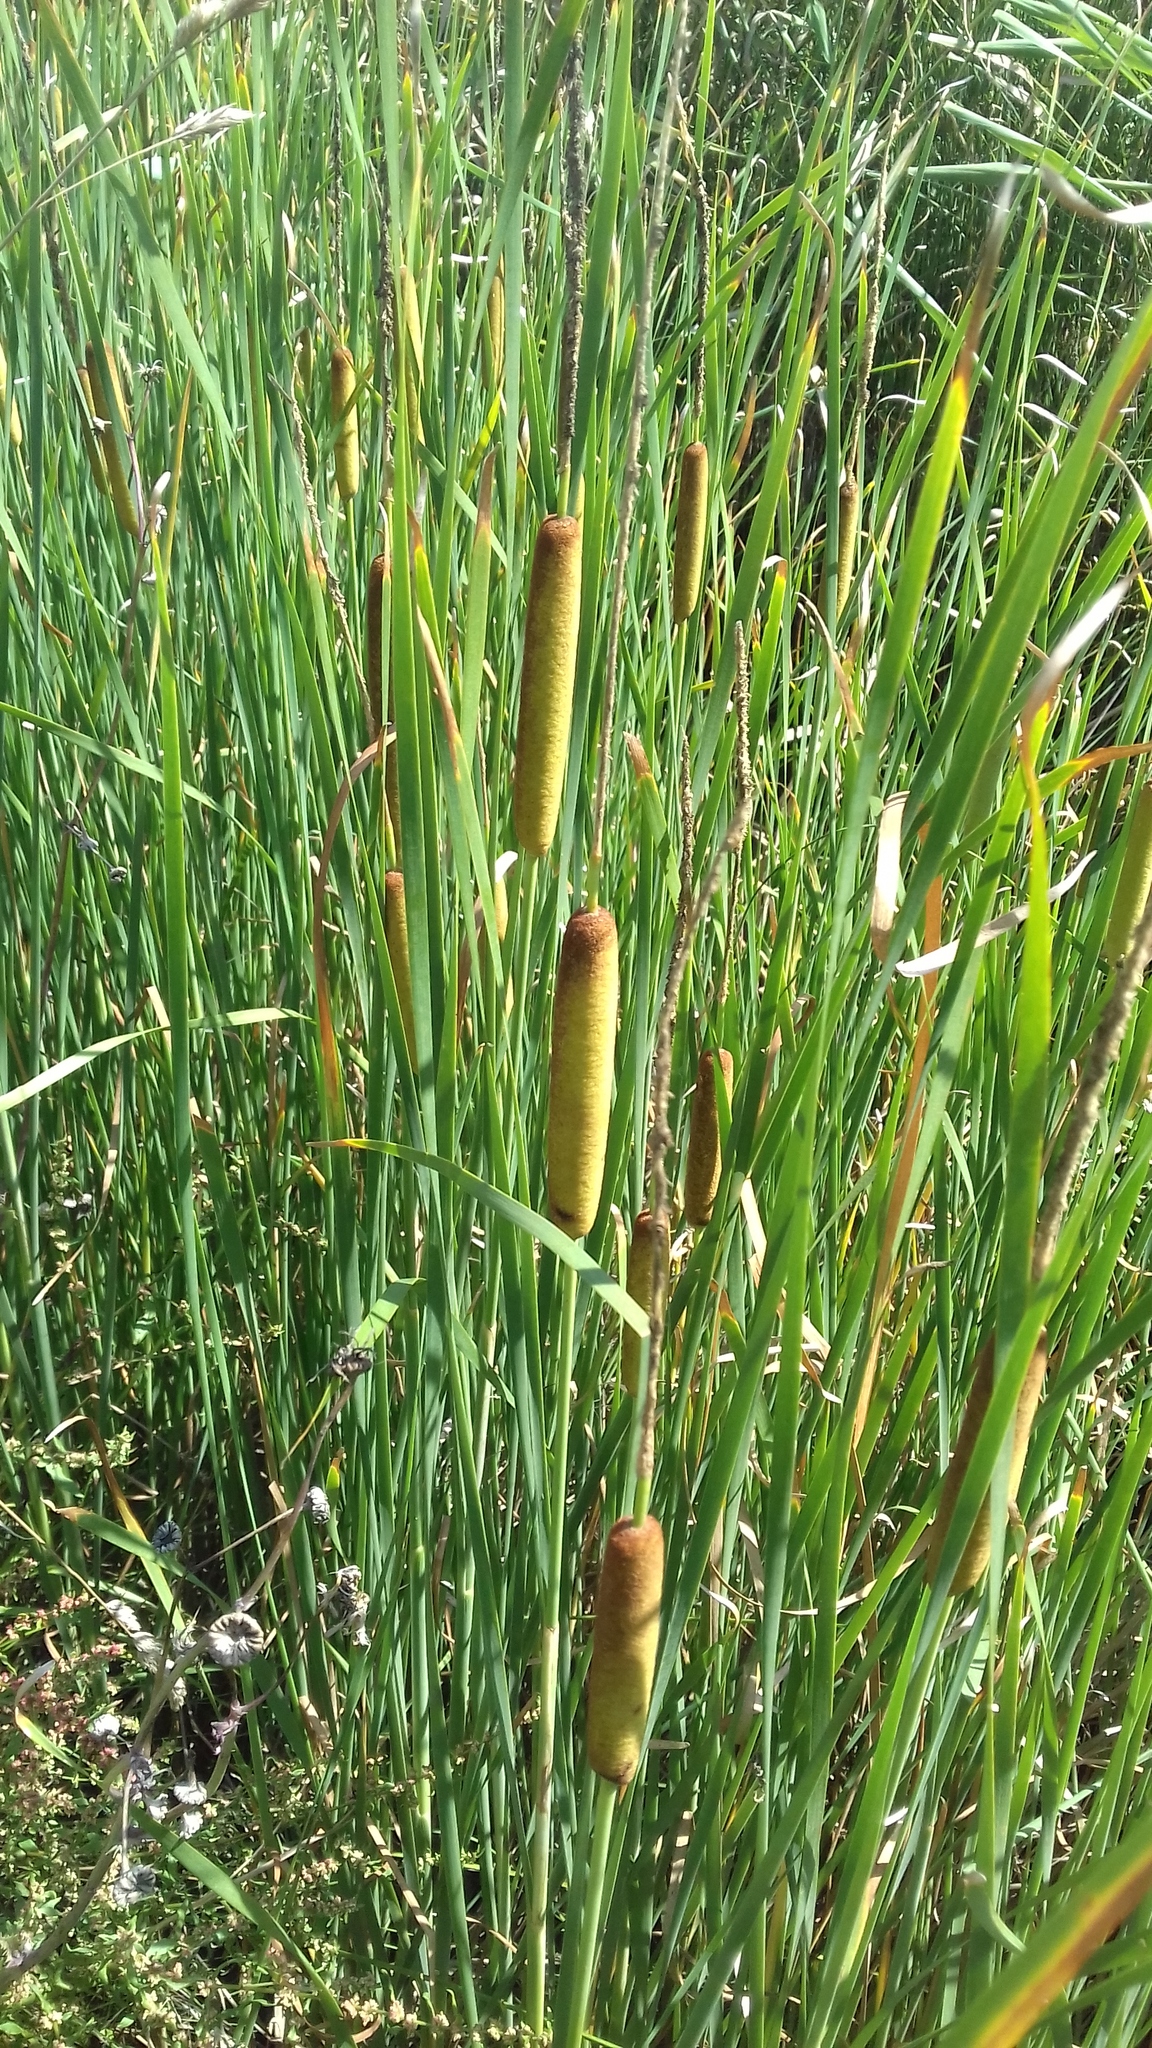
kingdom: Plantae
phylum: Tracheophyta
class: Liliopsida
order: Poales
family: Typhaceae
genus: Typha
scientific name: Typha angustifolia
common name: Lesser bulrush
